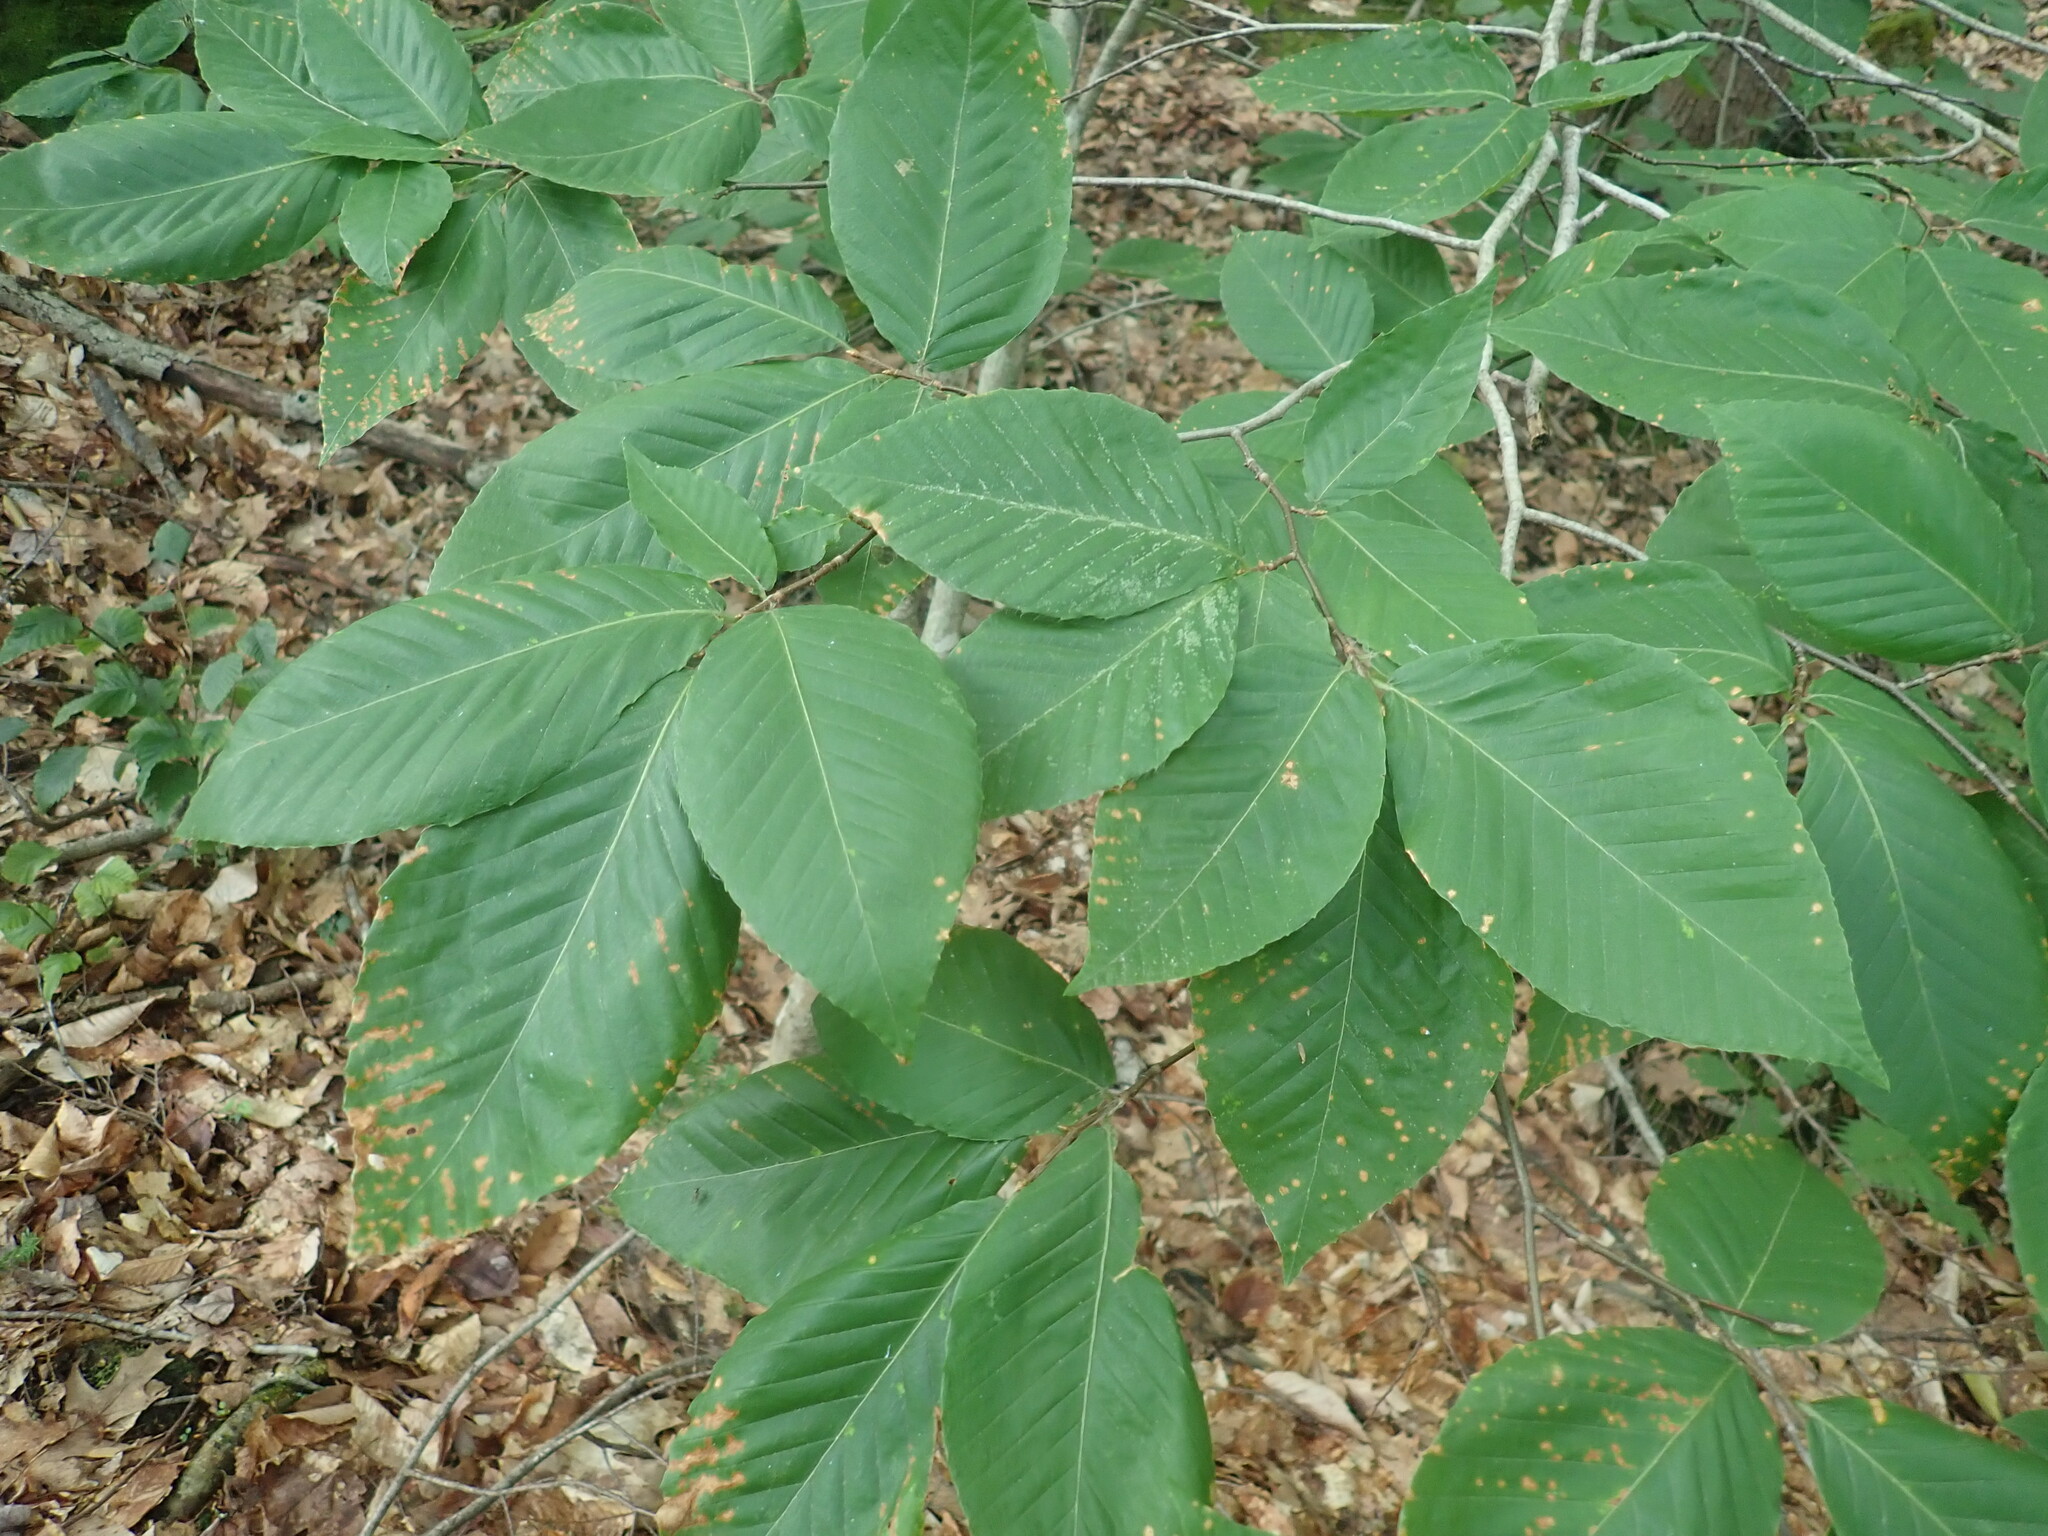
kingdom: Plantae
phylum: Tracheophyta
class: Magnoliopsida
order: Fagales
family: Fagaceae
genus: Fagus
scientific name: Fagus grandifolia
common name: American beech
